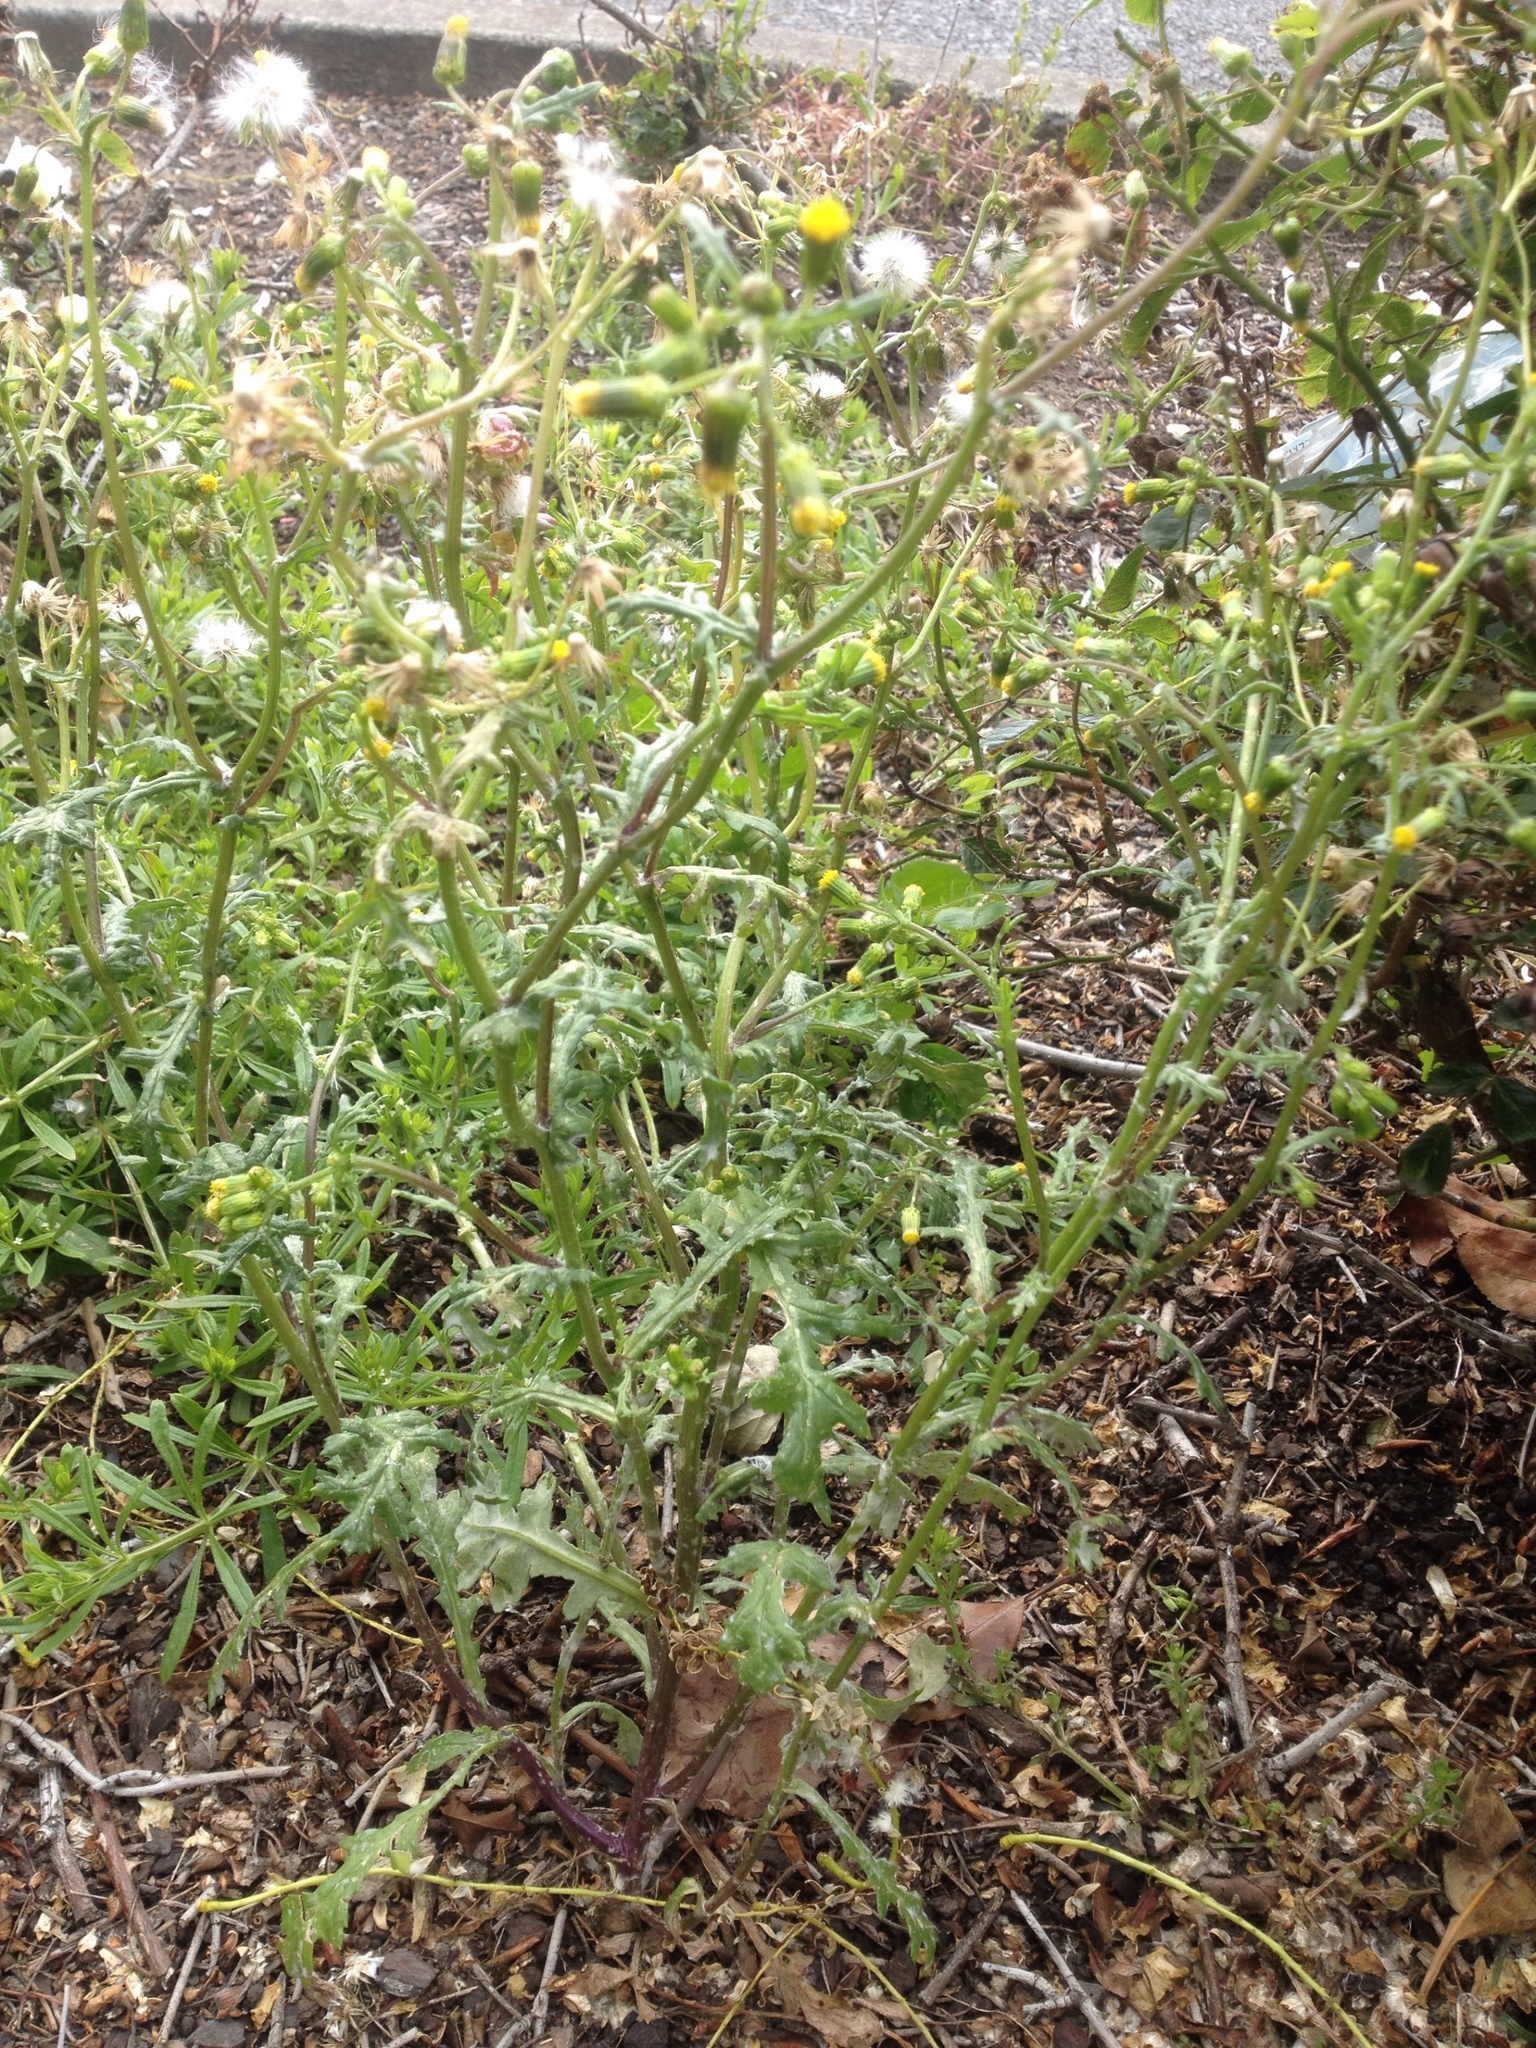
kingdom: Plantae
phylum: Tracheophyta
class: Magnoliopsida
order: Asterales
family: Asteraceae
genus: Senecio
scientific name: Senecio vulgaris
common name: Old-man-in-the-spring
